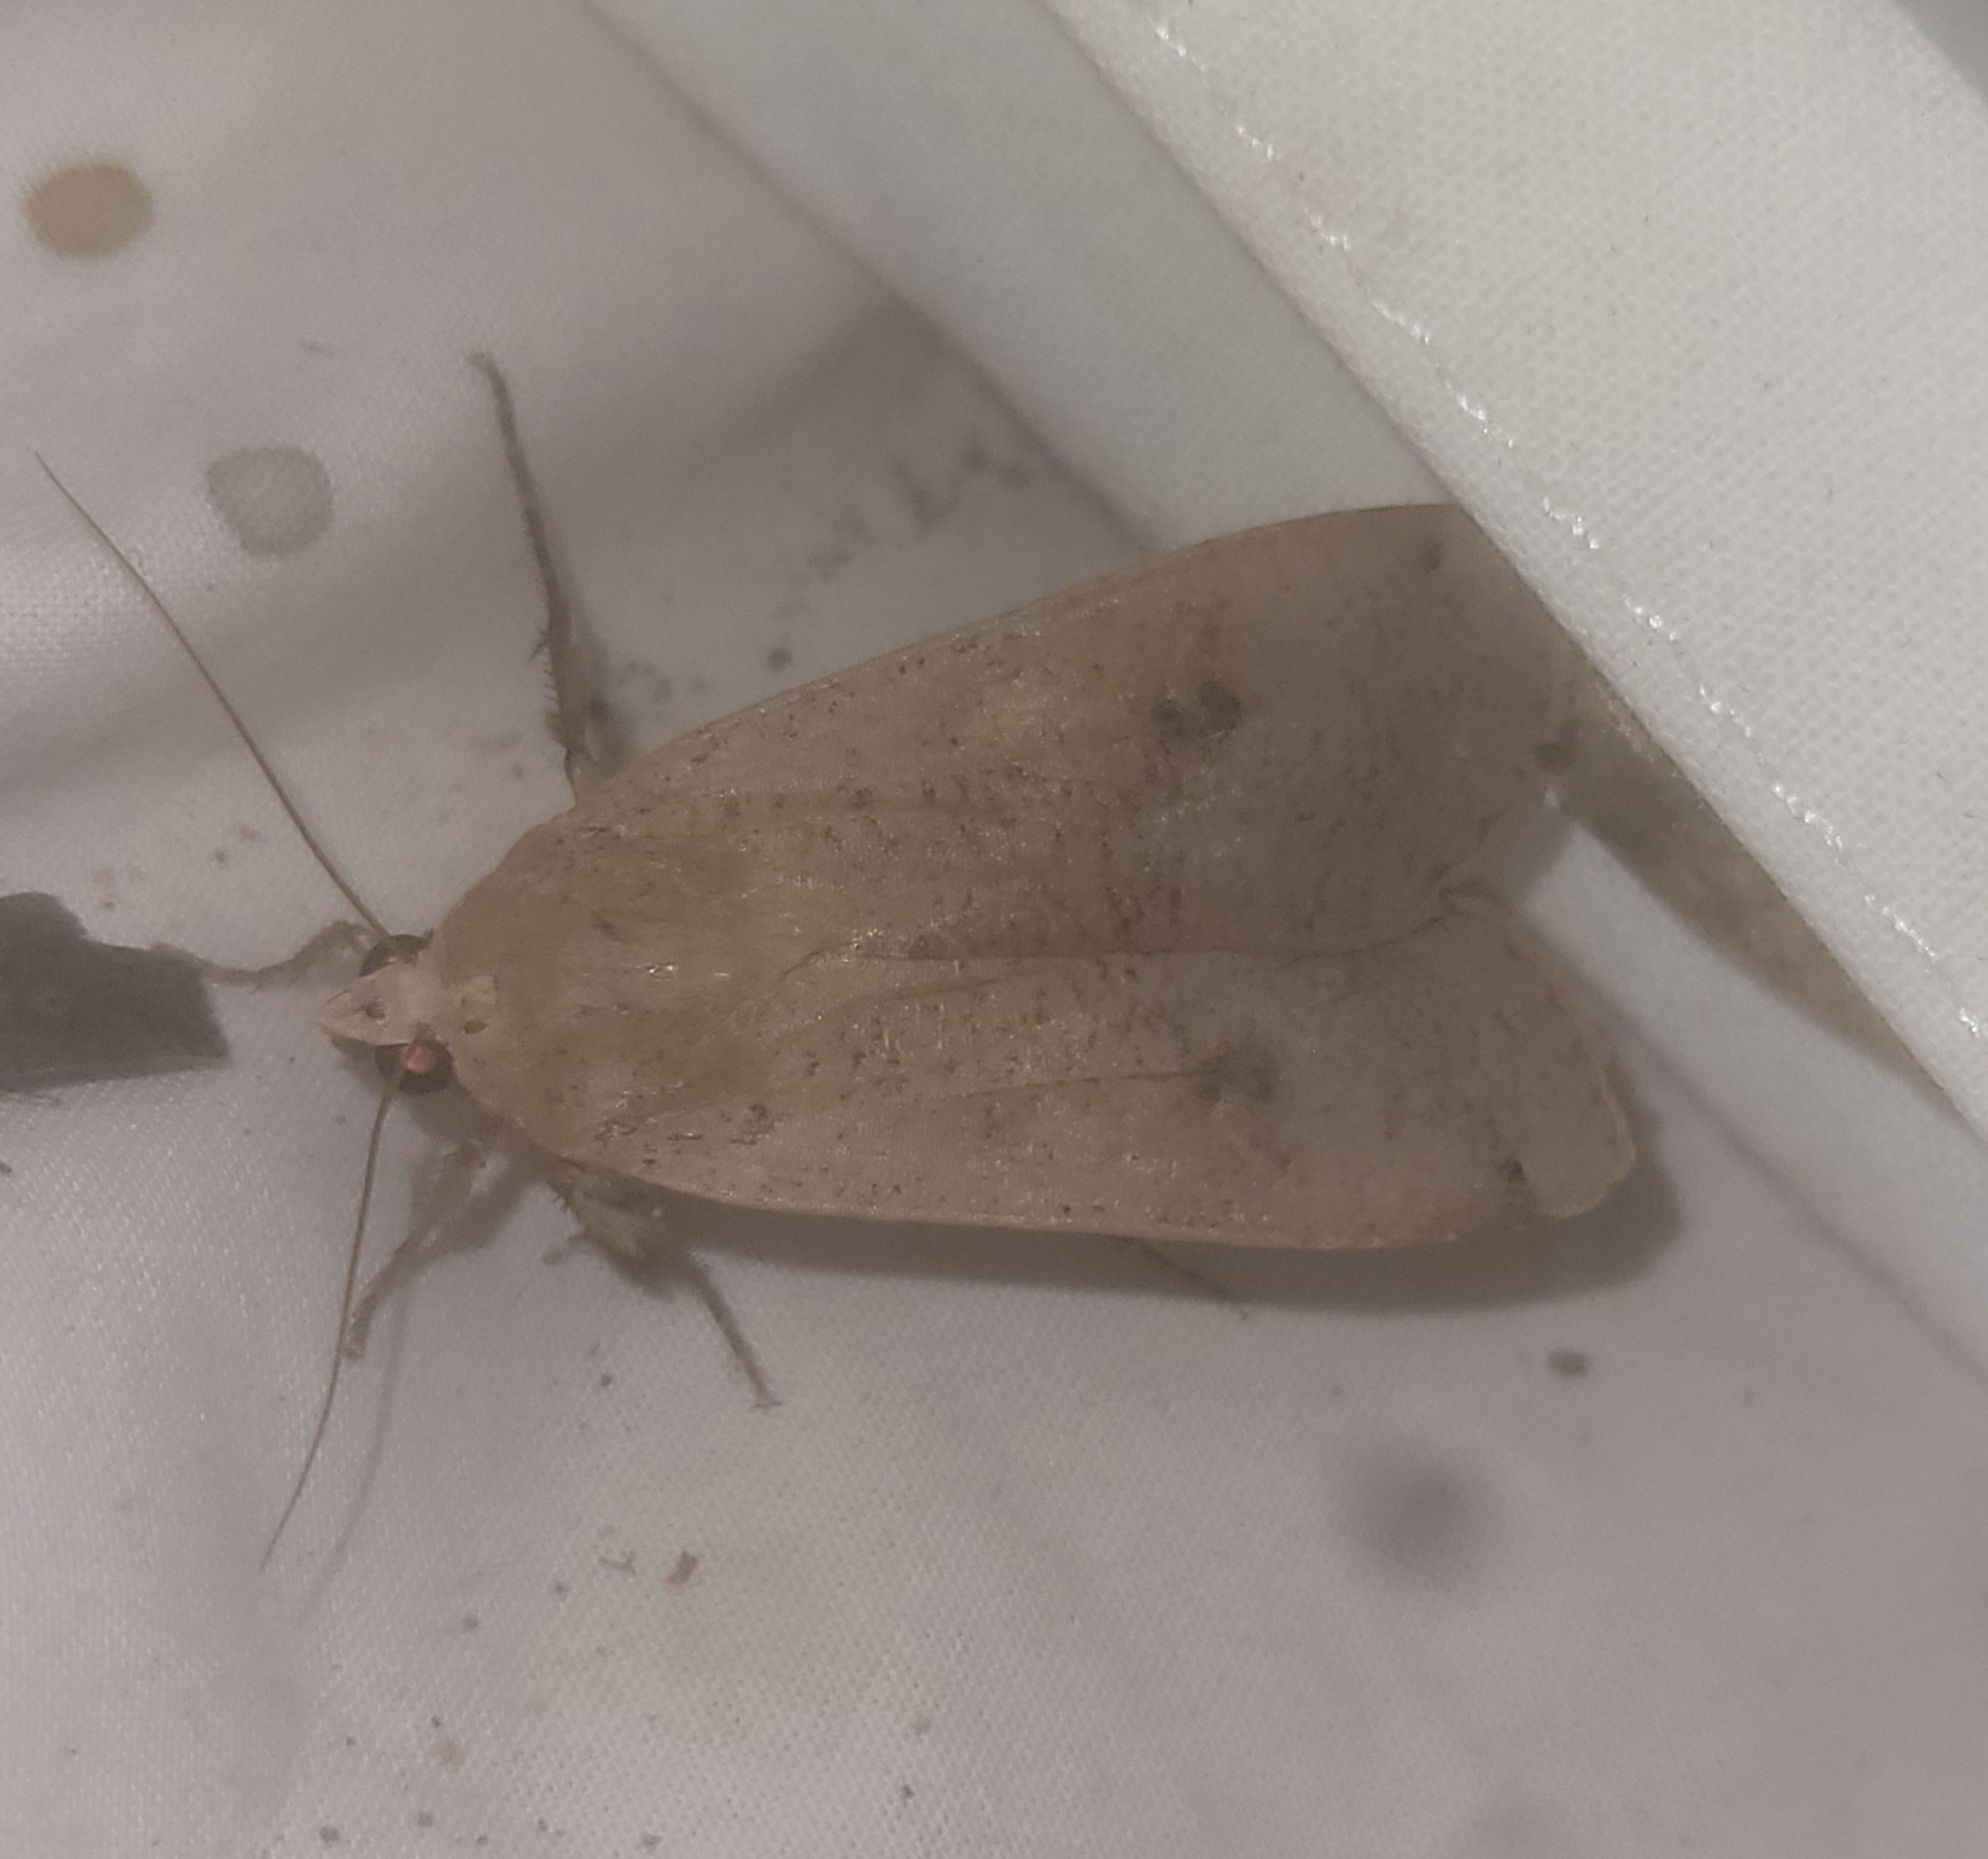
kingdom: Animalia
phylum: Arthropoda
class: Insecta
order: Lepidoptera
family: Noctuidae
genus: Noctua
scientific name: Noctua pronuba
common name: Large yellow underwing
